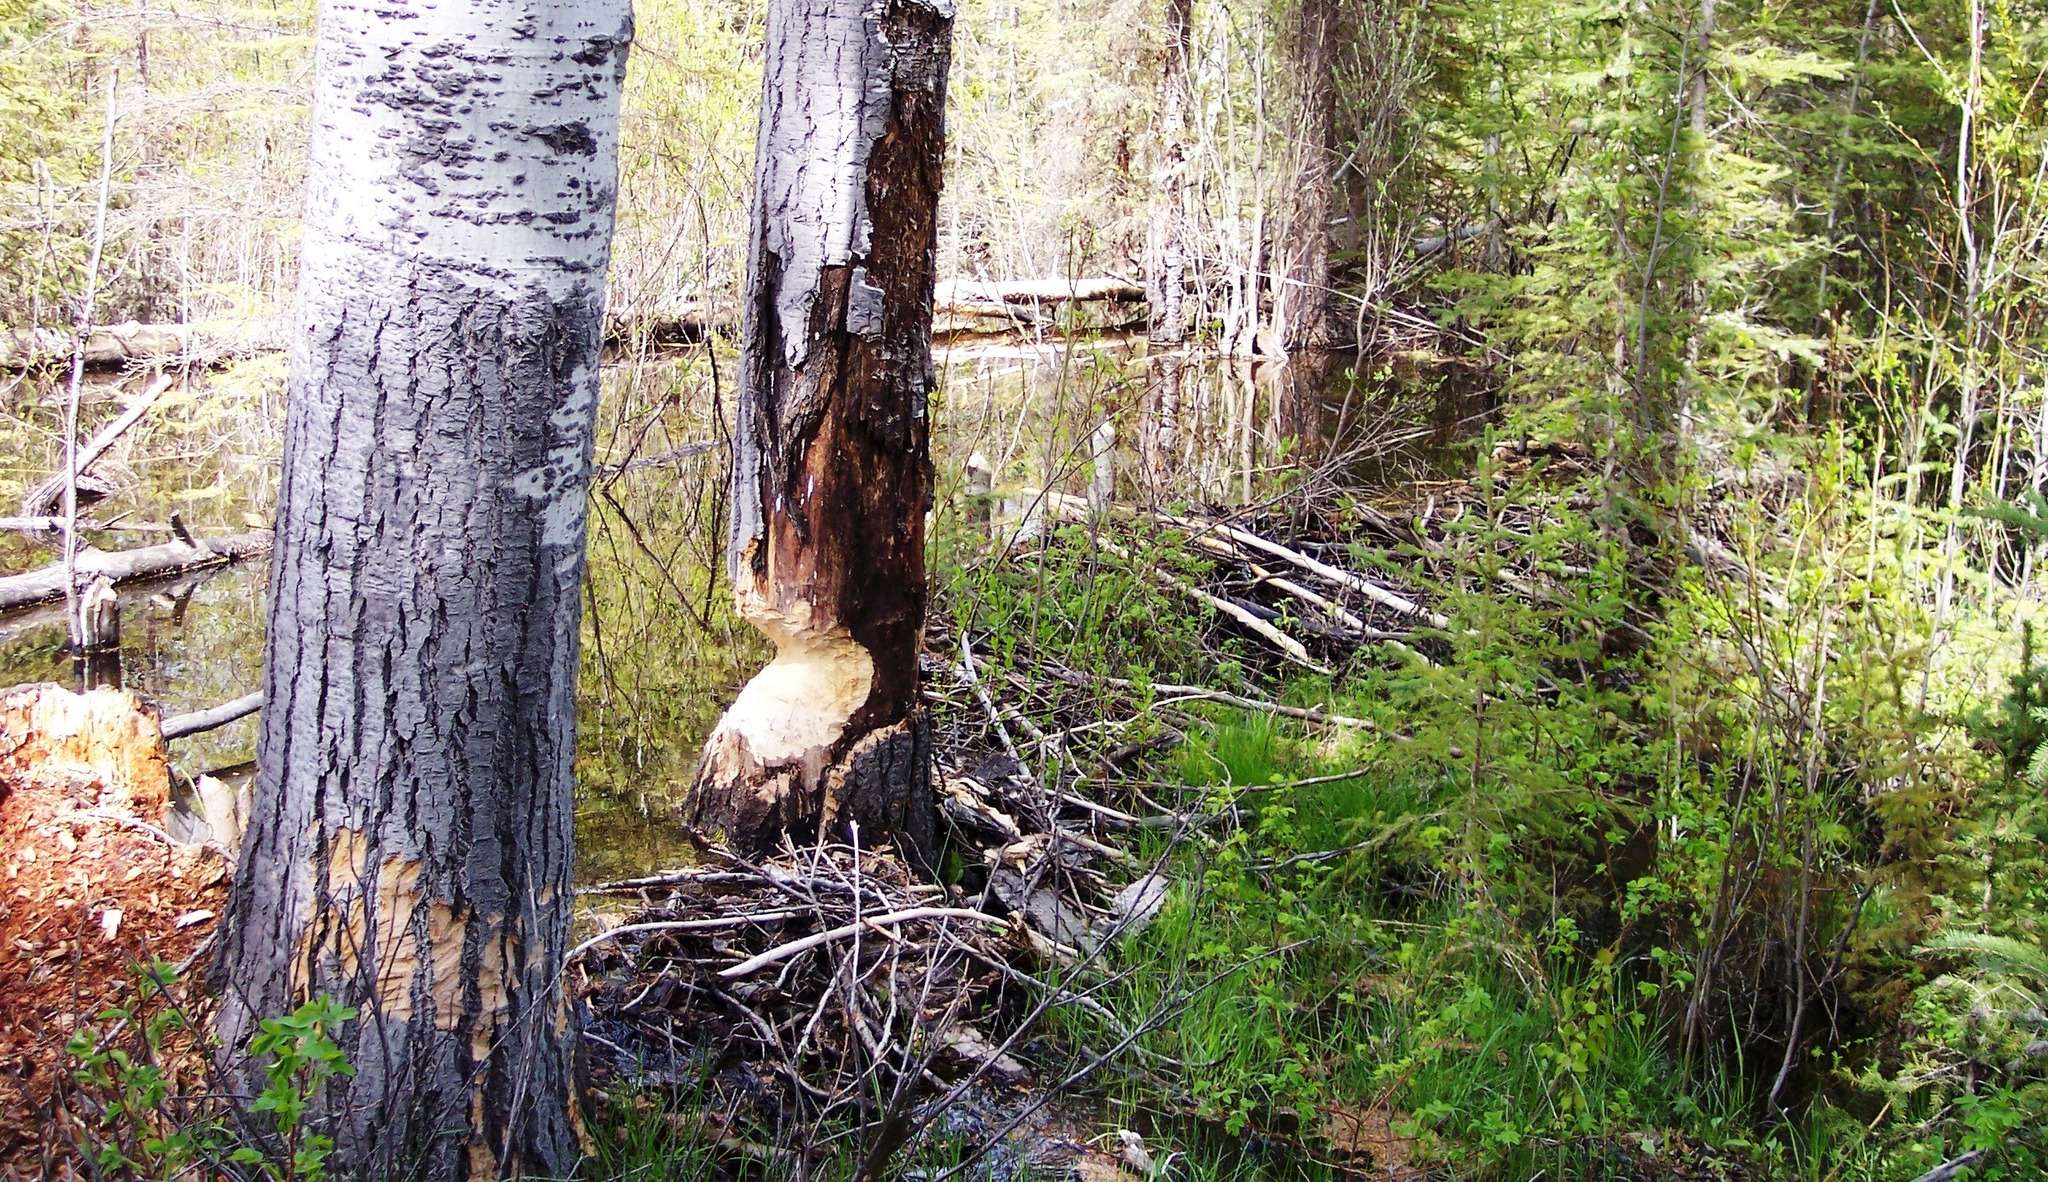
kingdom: Animalia
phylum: Chordata
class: Mammalia
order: Rodentia
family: Castoridae
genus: Castor
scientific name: Castor canadensis
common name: American beaver
